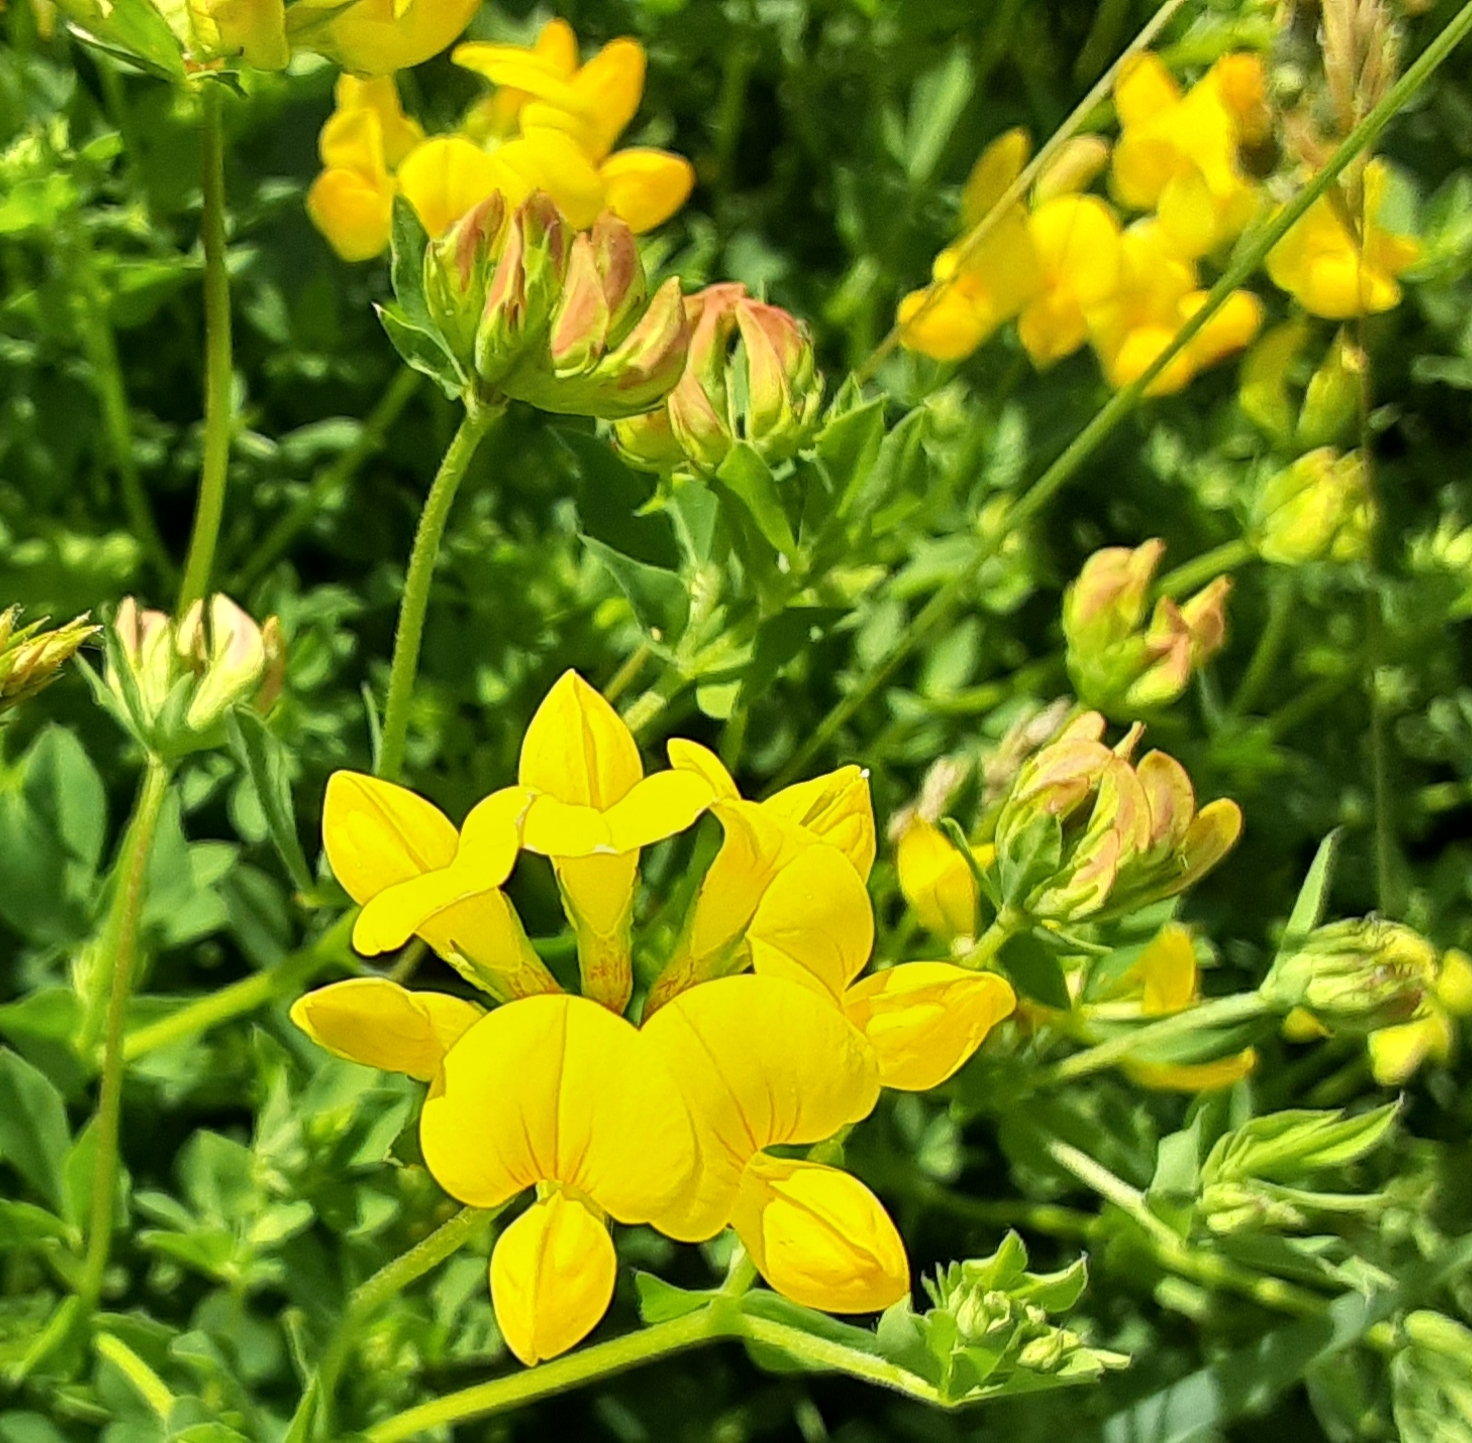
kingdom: Plantae
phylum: Tracheophyta
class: Magnoliopsida
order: Fabales
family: Fabaceae
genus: Lotus
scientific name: Lotus corniculatus
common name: Common bird's-foot-trefoil
